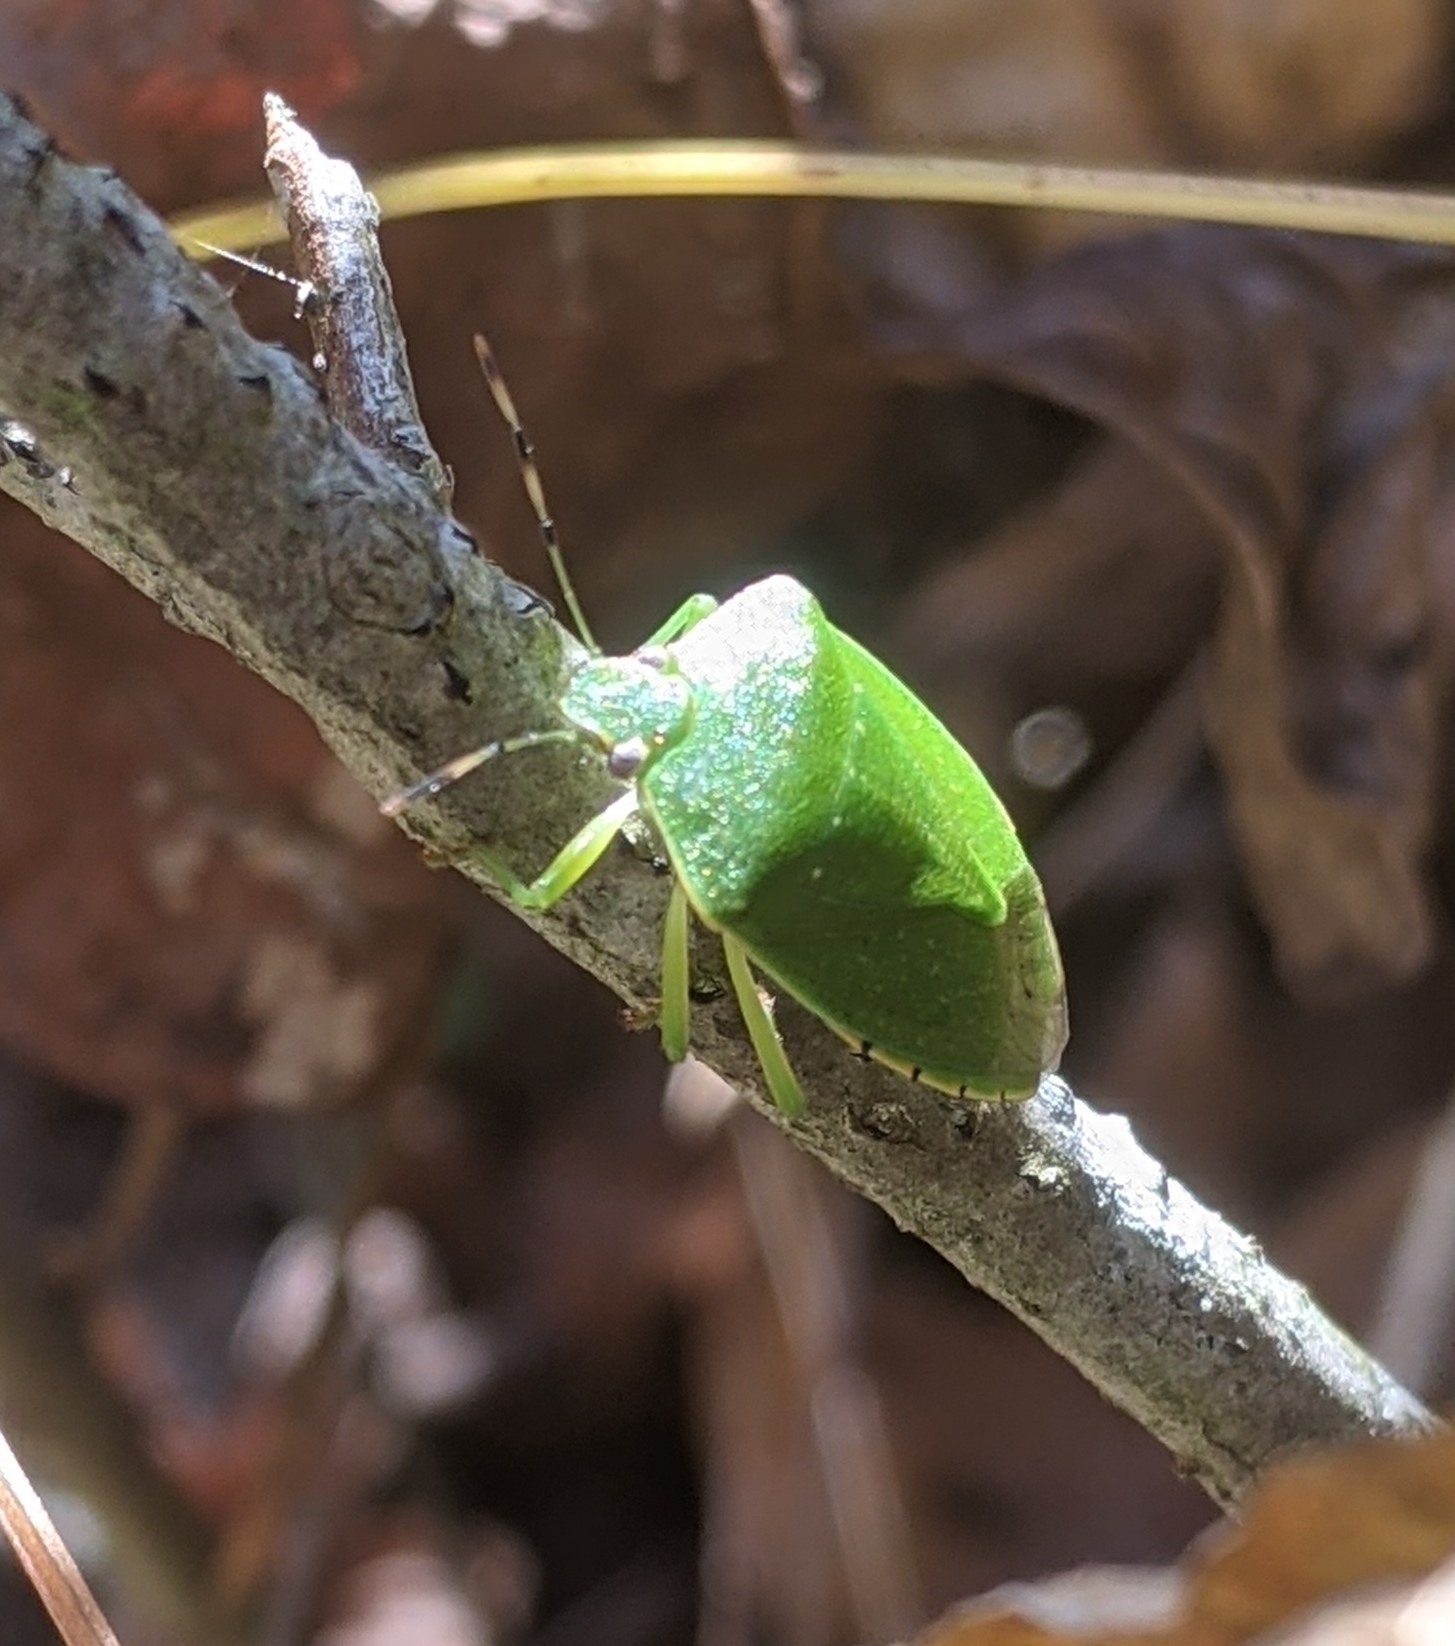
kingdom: Animalia
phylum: Arthropoda
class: Insecta
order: Hemiptera
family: Pentatomidae
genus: Chinavia
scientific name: Chinavia hilaris
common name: Green stink bug
